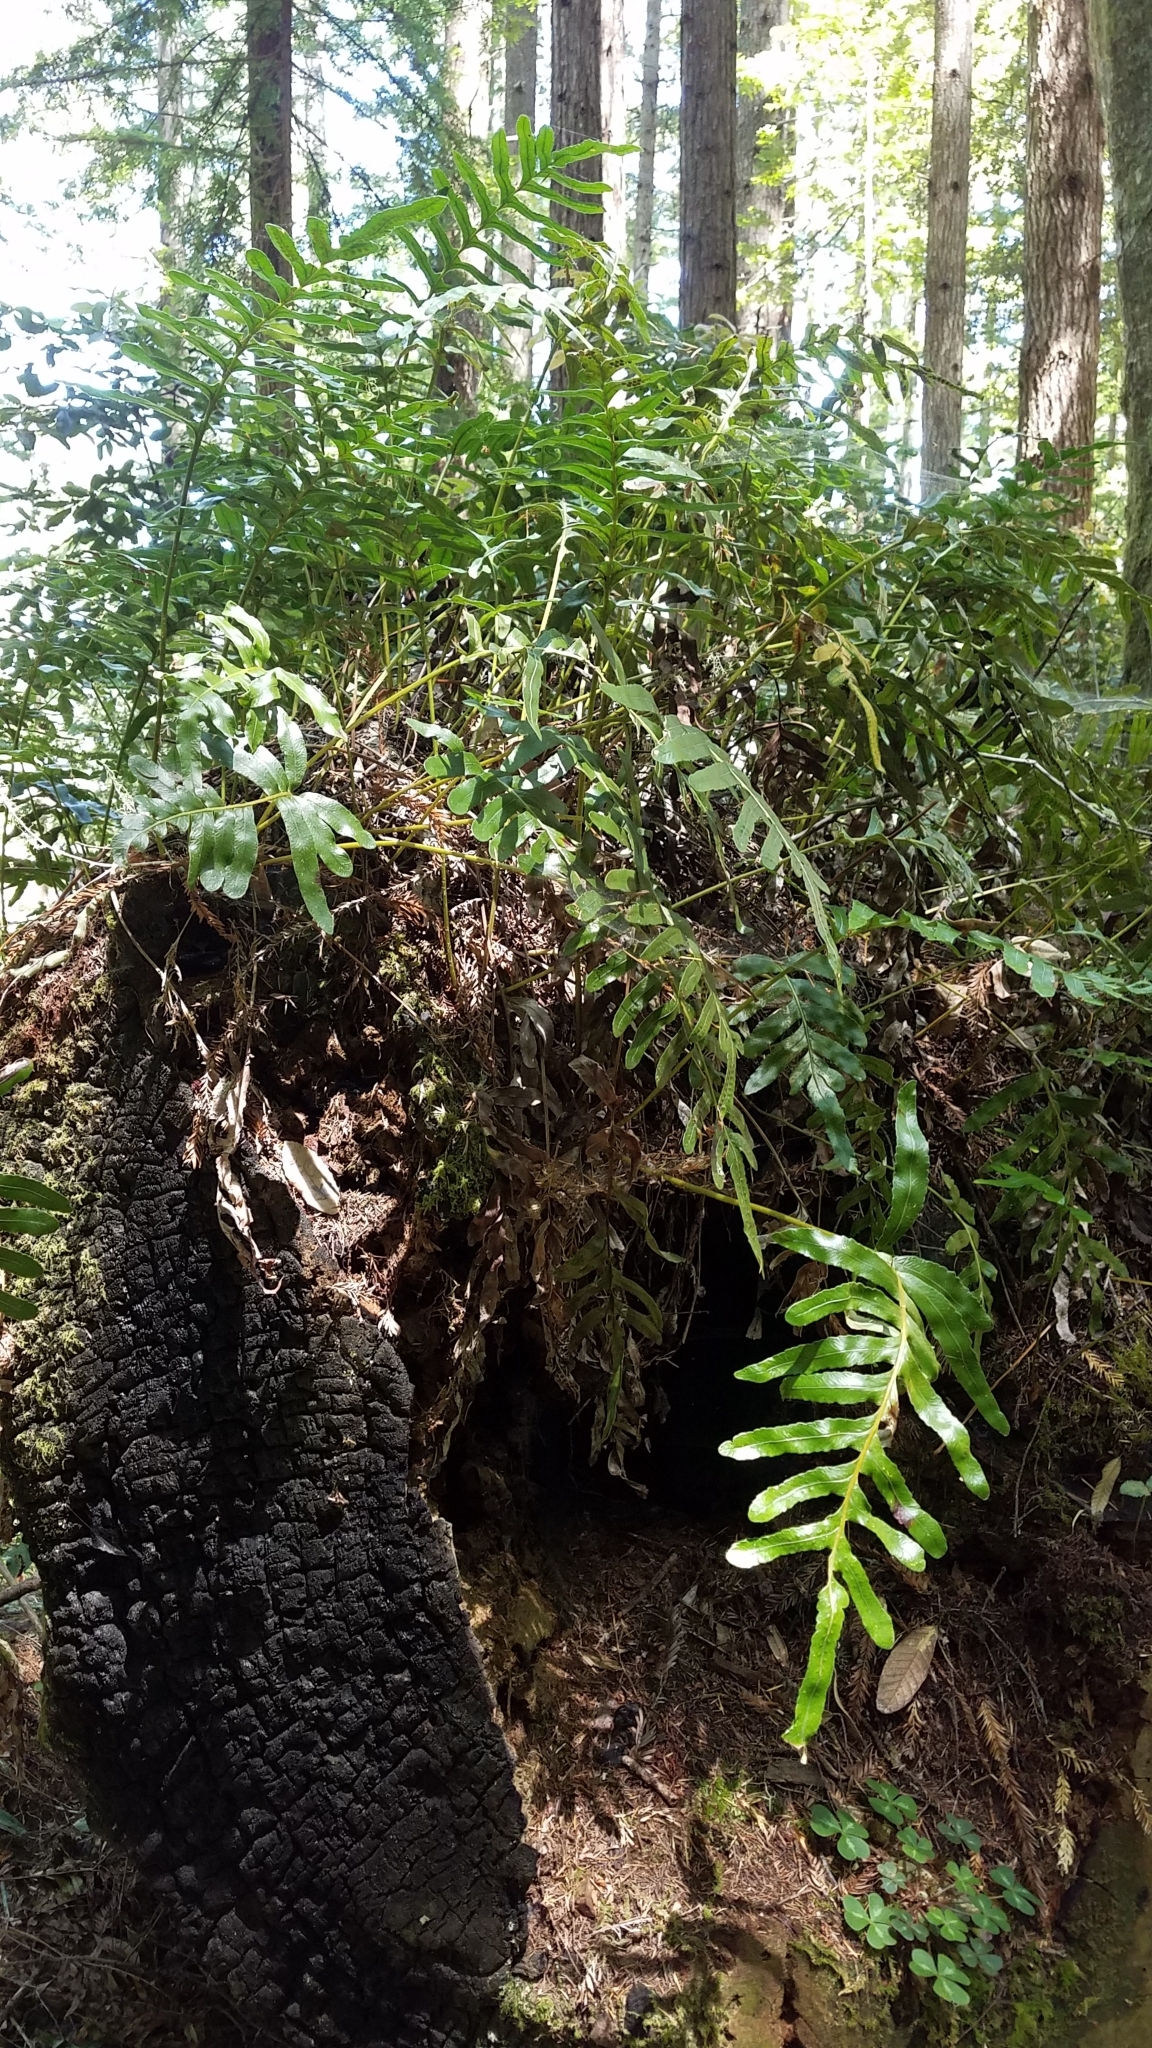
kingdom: Plantae
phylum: Tracheophyta
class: Polypodiopsida
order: Polypodiales
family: Polypodiaceae
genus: Polypodium
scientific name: Polypodium scouleri
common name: Scouler's polypody
